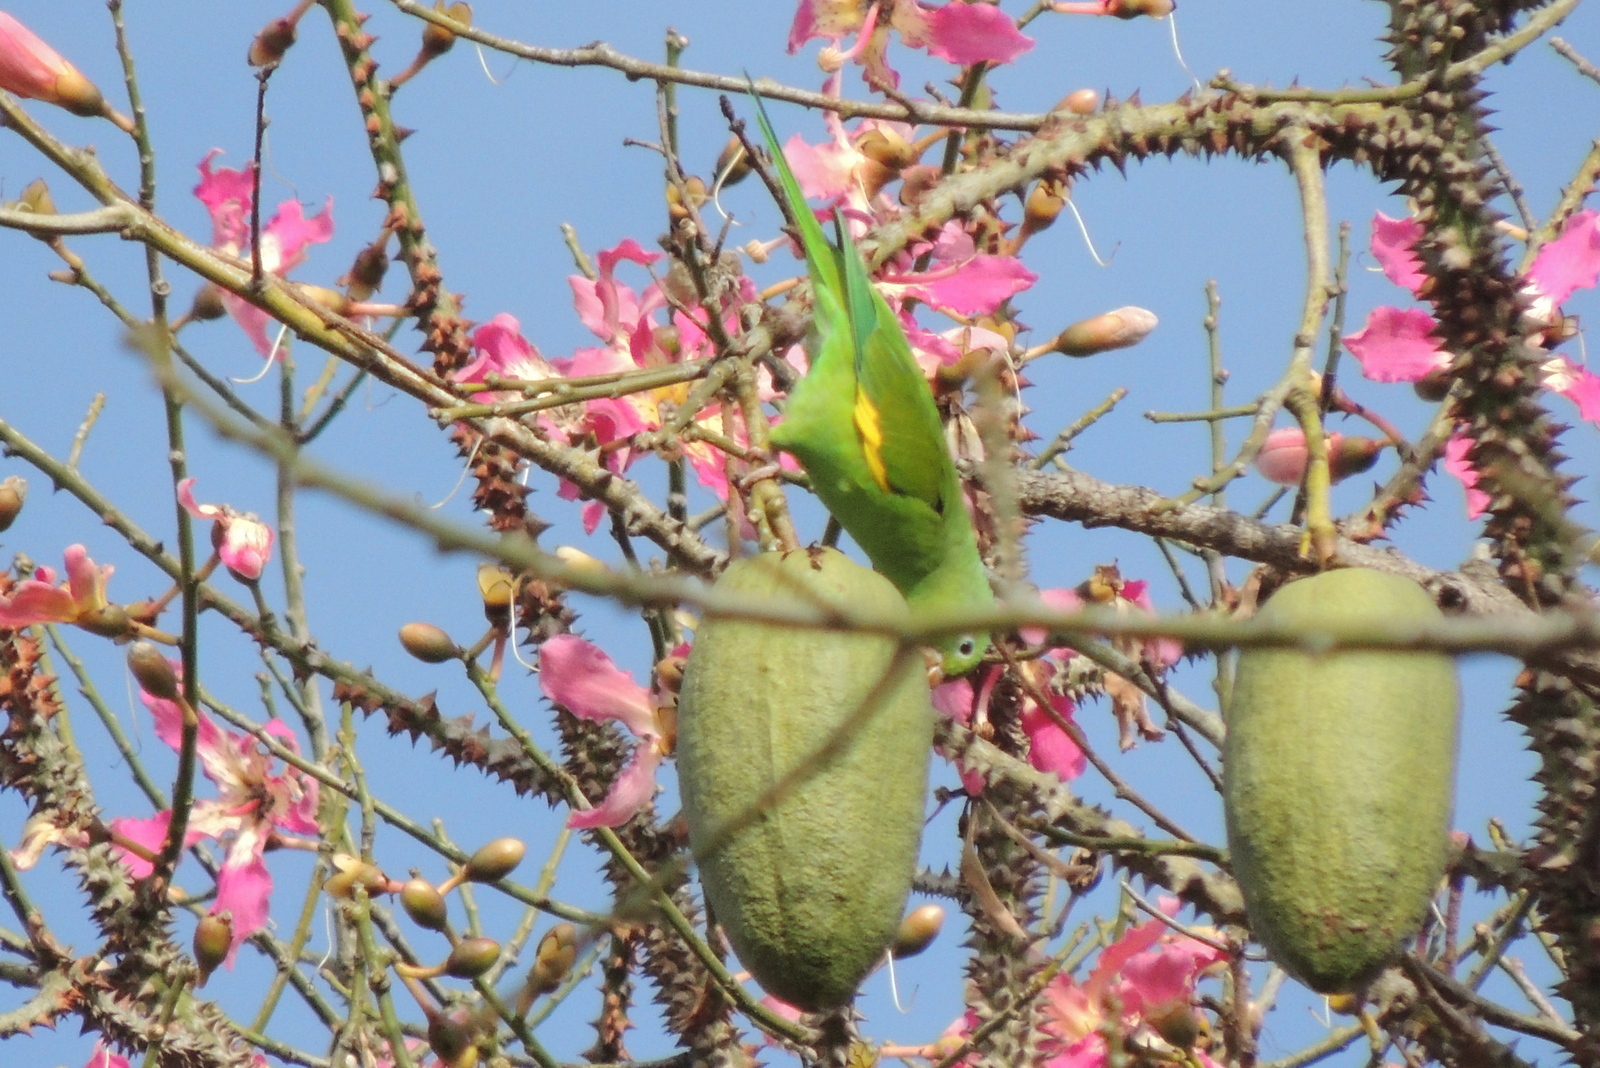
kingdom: Animalia
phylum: Chordata
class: Aves
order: Psittaciformes
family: Psittacidae
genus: Brotogeris
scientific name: Brotogeris chiriri
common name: Yellow-chevroned parakeet
